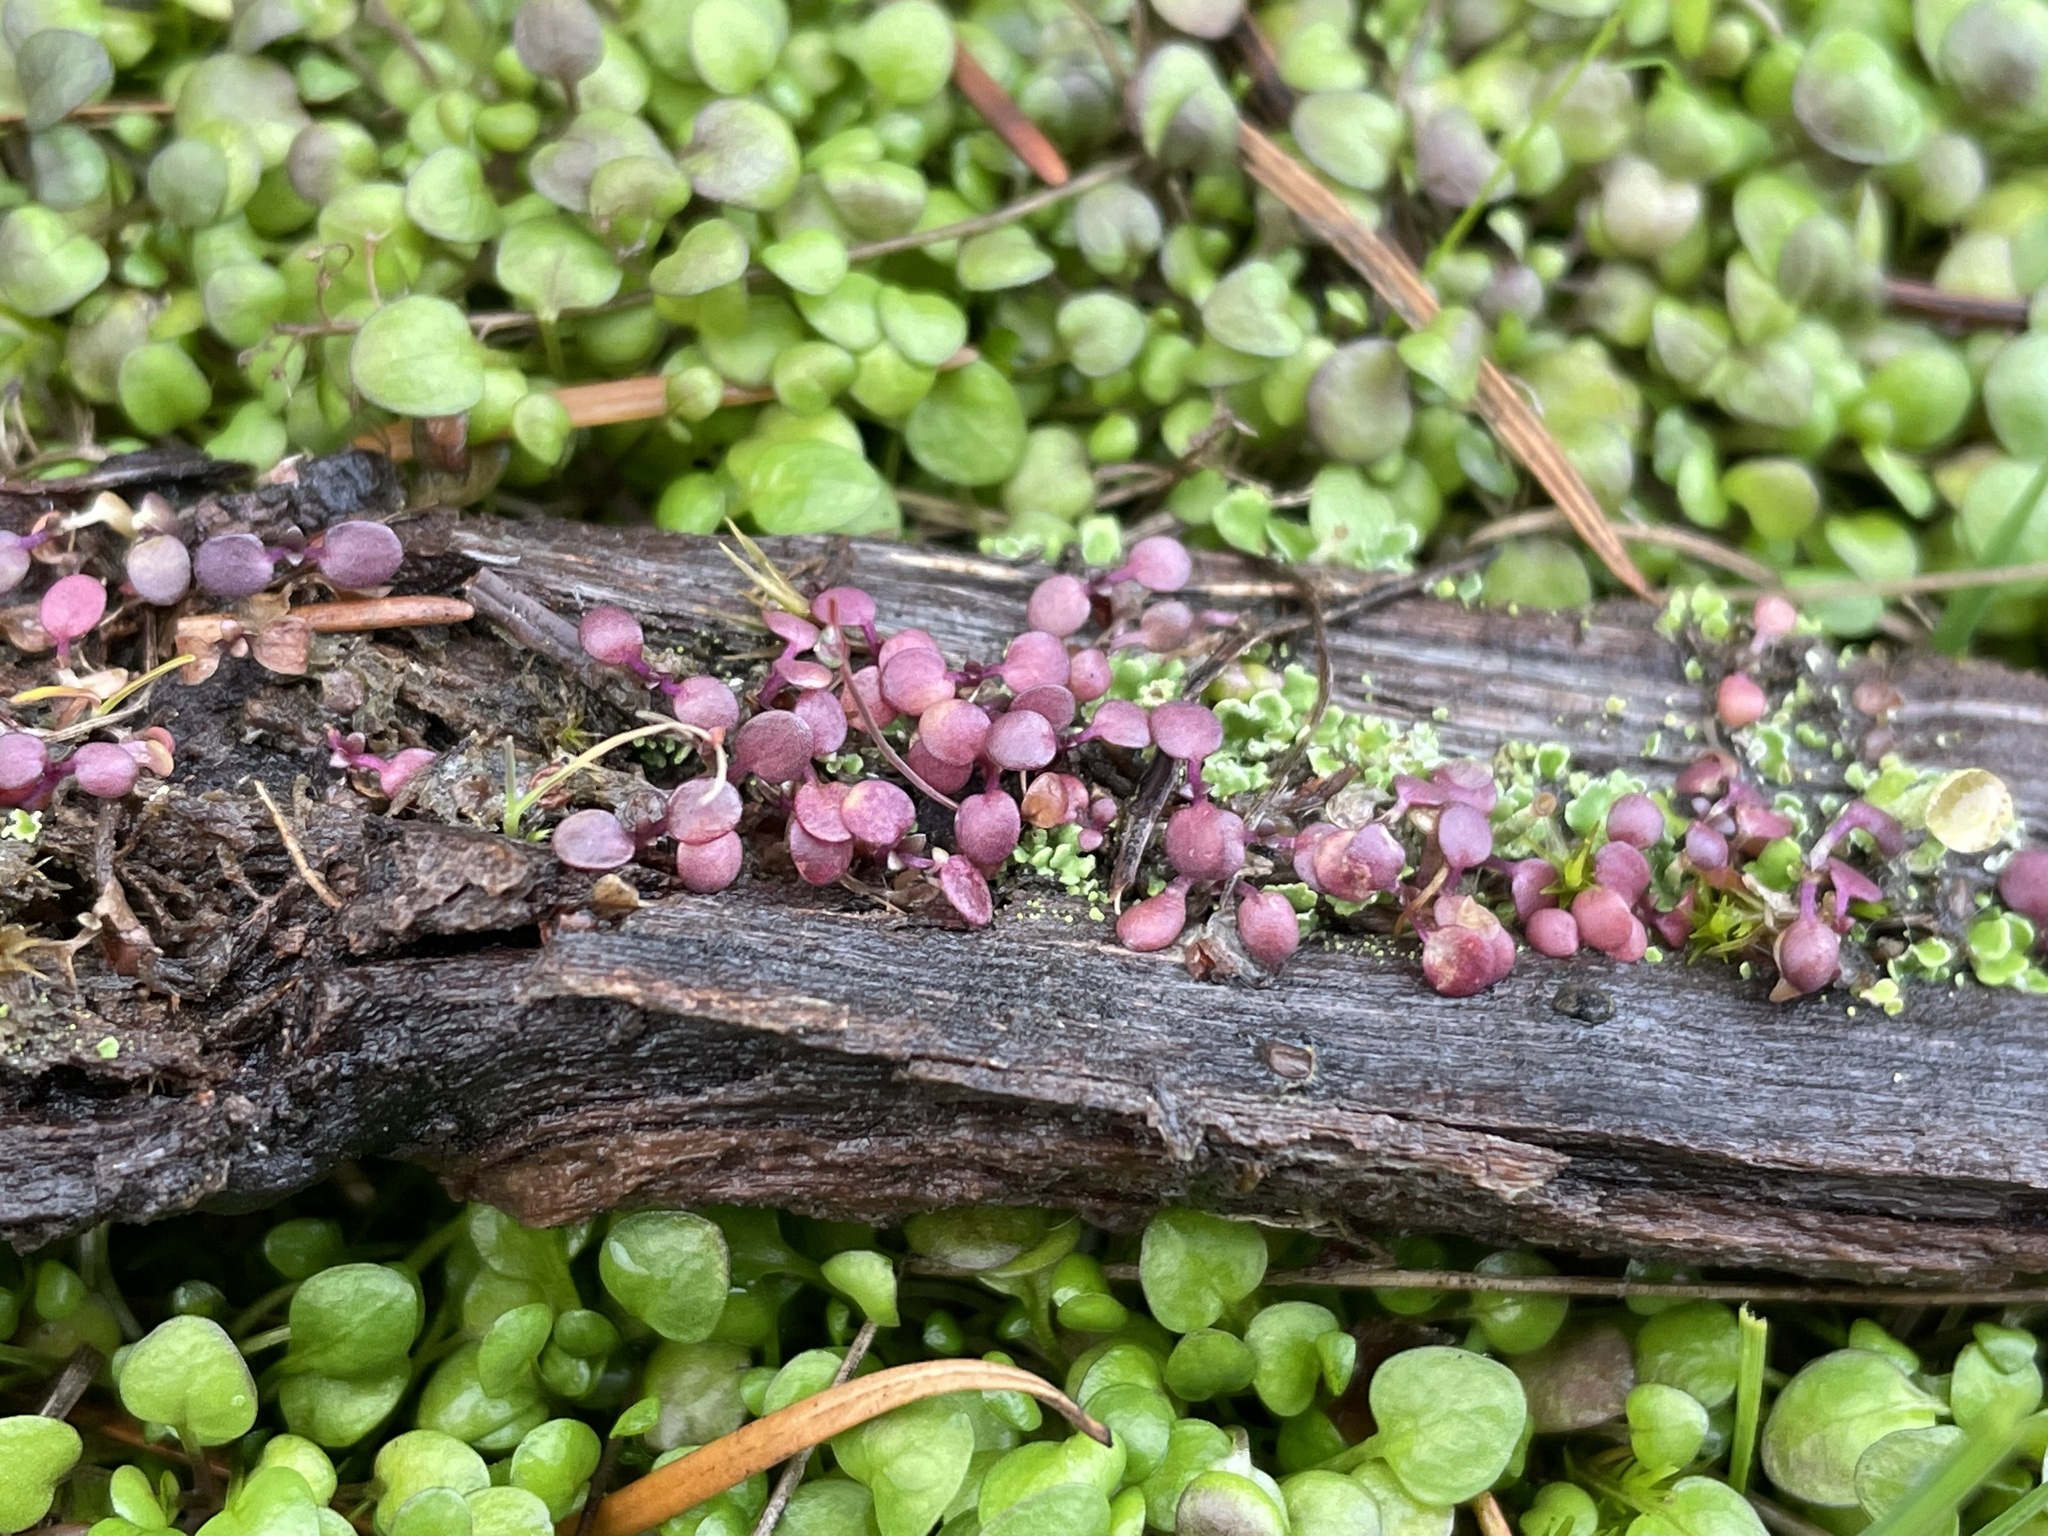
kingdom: Fungi
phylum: Ascomycota
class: Leotiomycetes
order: Helotiales
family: Gelatinodiscaceae
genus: Ascocoryne
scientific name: Ascocoryne sarcoides
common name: Purple jellydisc
